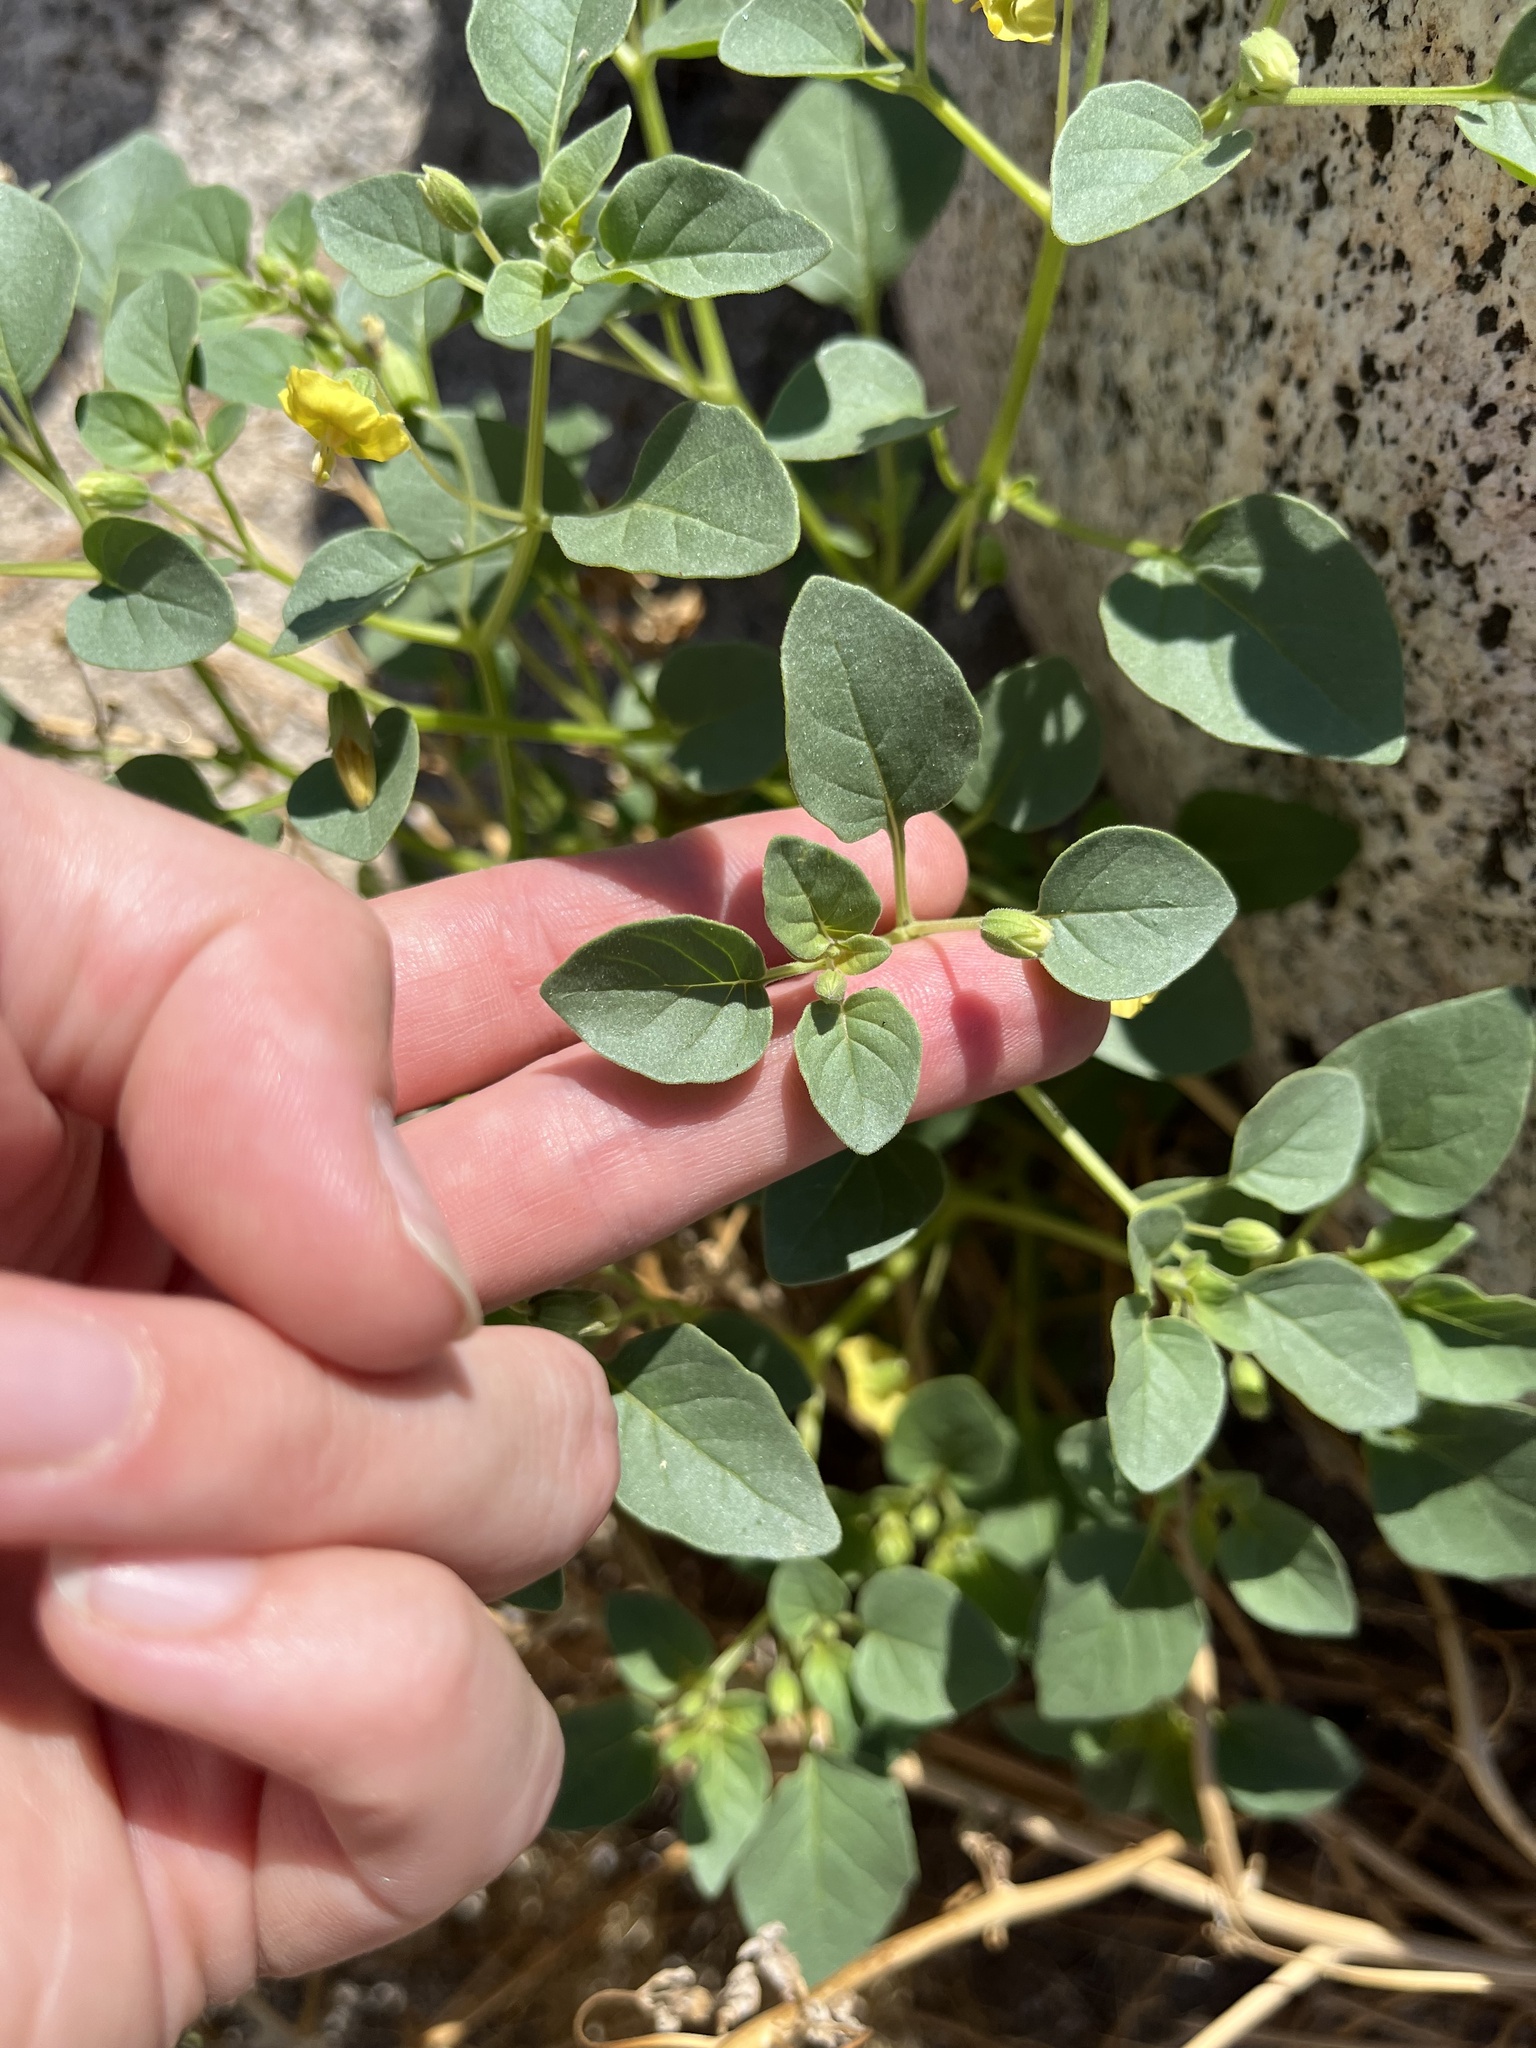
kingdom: Plantae
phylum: Tracheophyta
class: Magnoliopsida
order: Solanales
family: Solanaceae
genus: Physalis
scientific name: Physalis crassifolia
